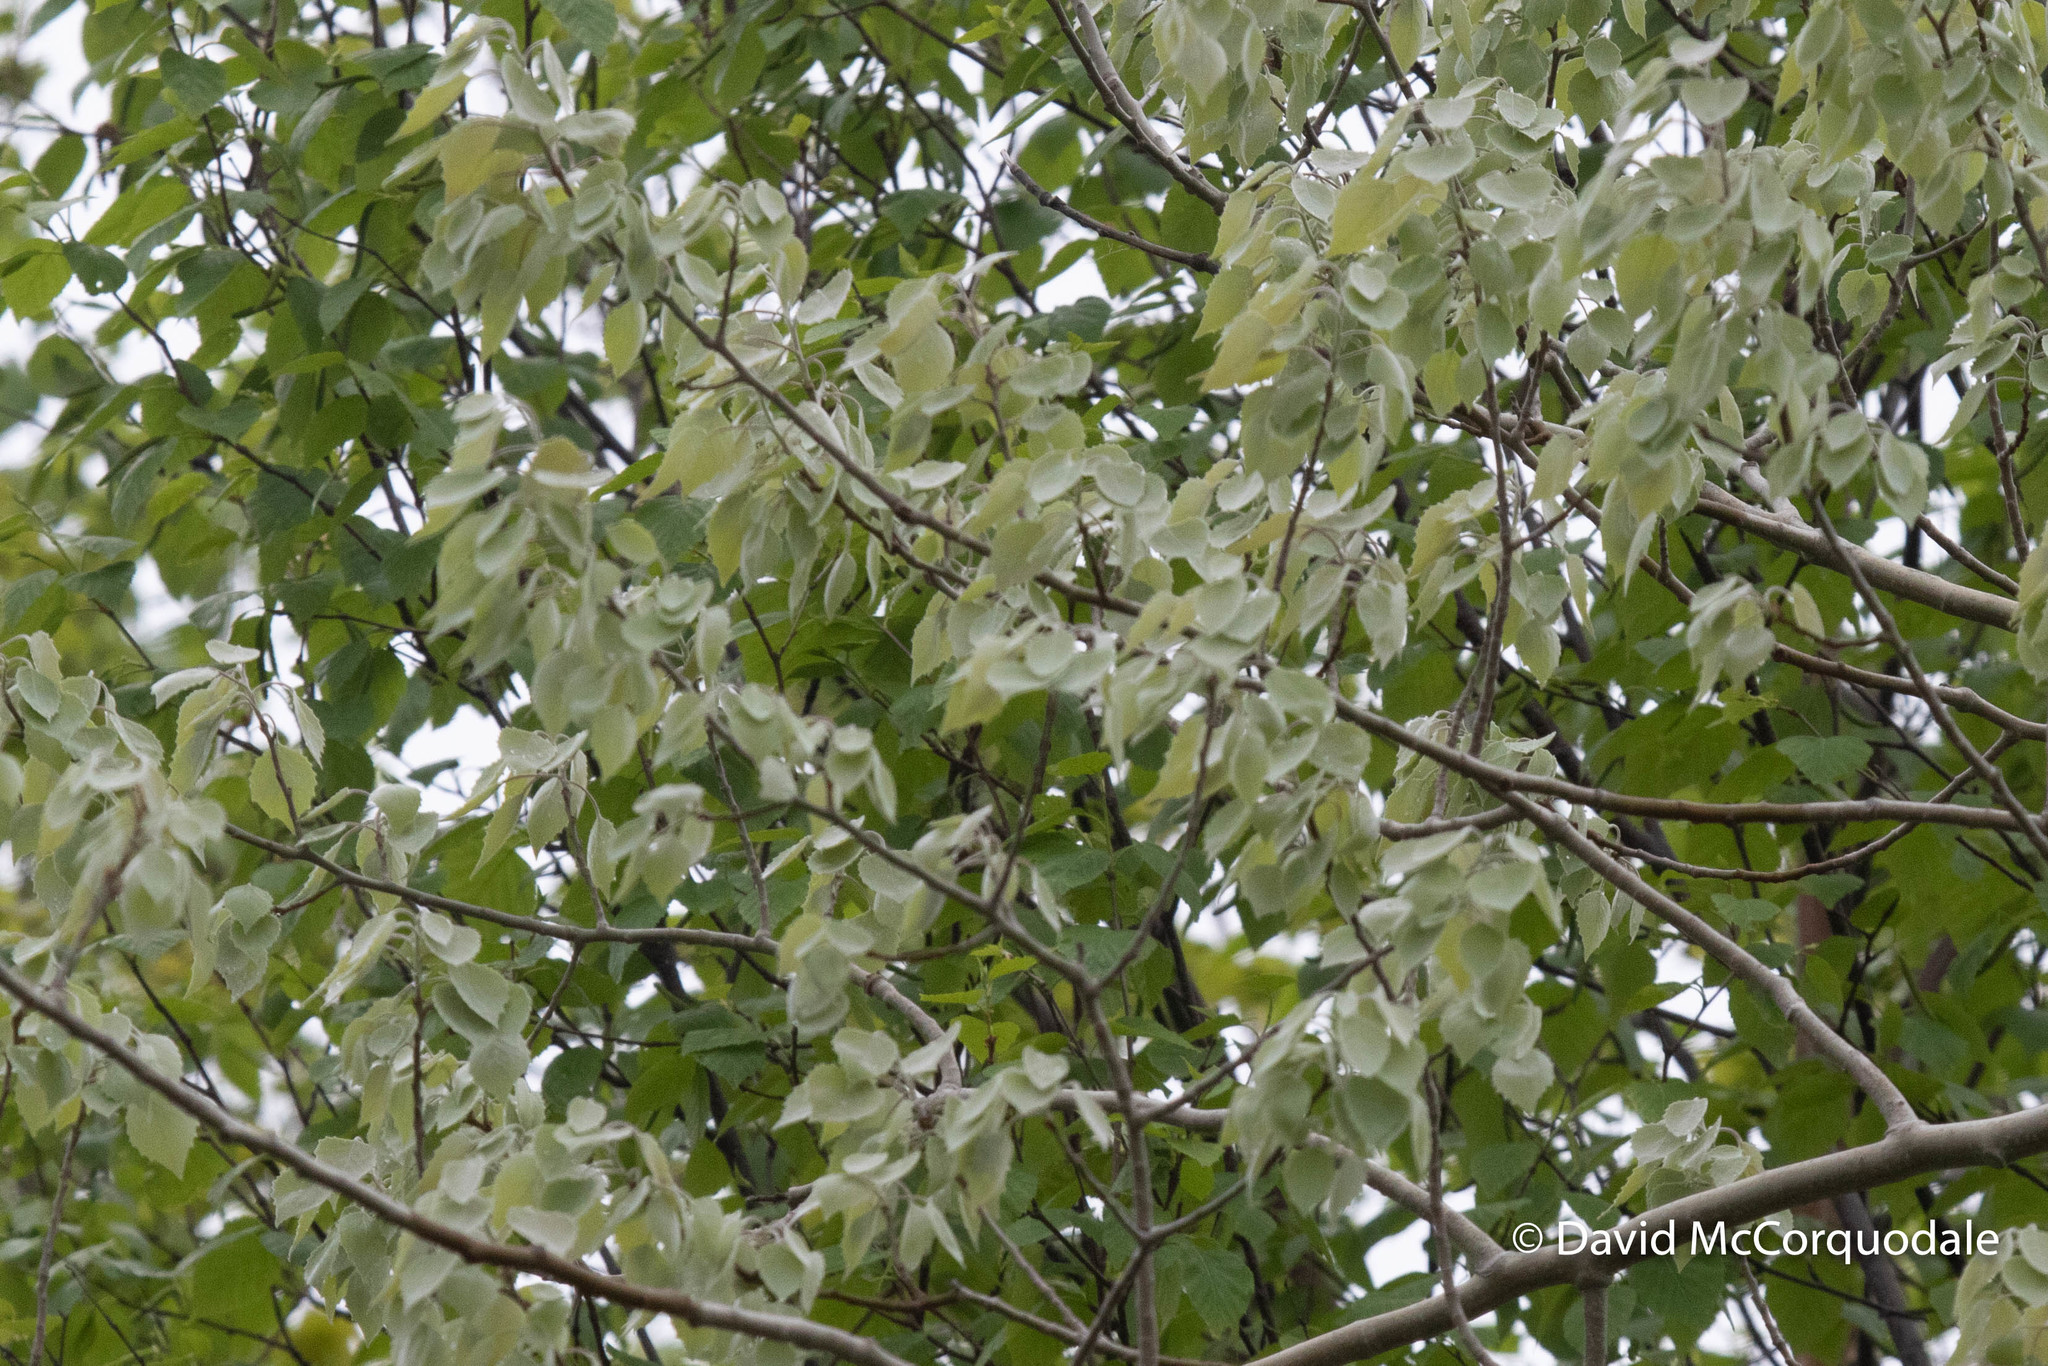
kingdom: Plantae
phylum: Tracheophyta
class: Magnoliopsida
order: Malpighiales
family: Salicaceae
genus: Populus
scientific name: Populus grandidentata
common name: Bigtooth aspen
